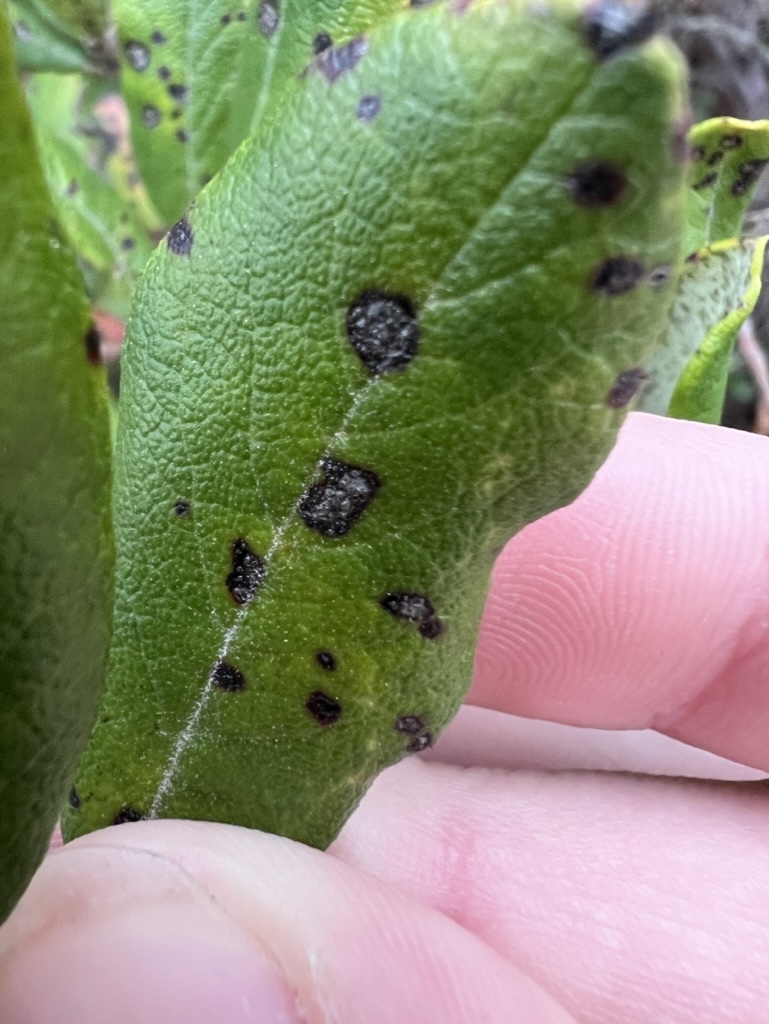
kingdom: Plantae
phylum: Tracheophyta
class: Magnoliopsida
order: Ericales
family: Ericaceae
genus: Arctostaphylos
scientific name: Arctostaphylos bicolor
